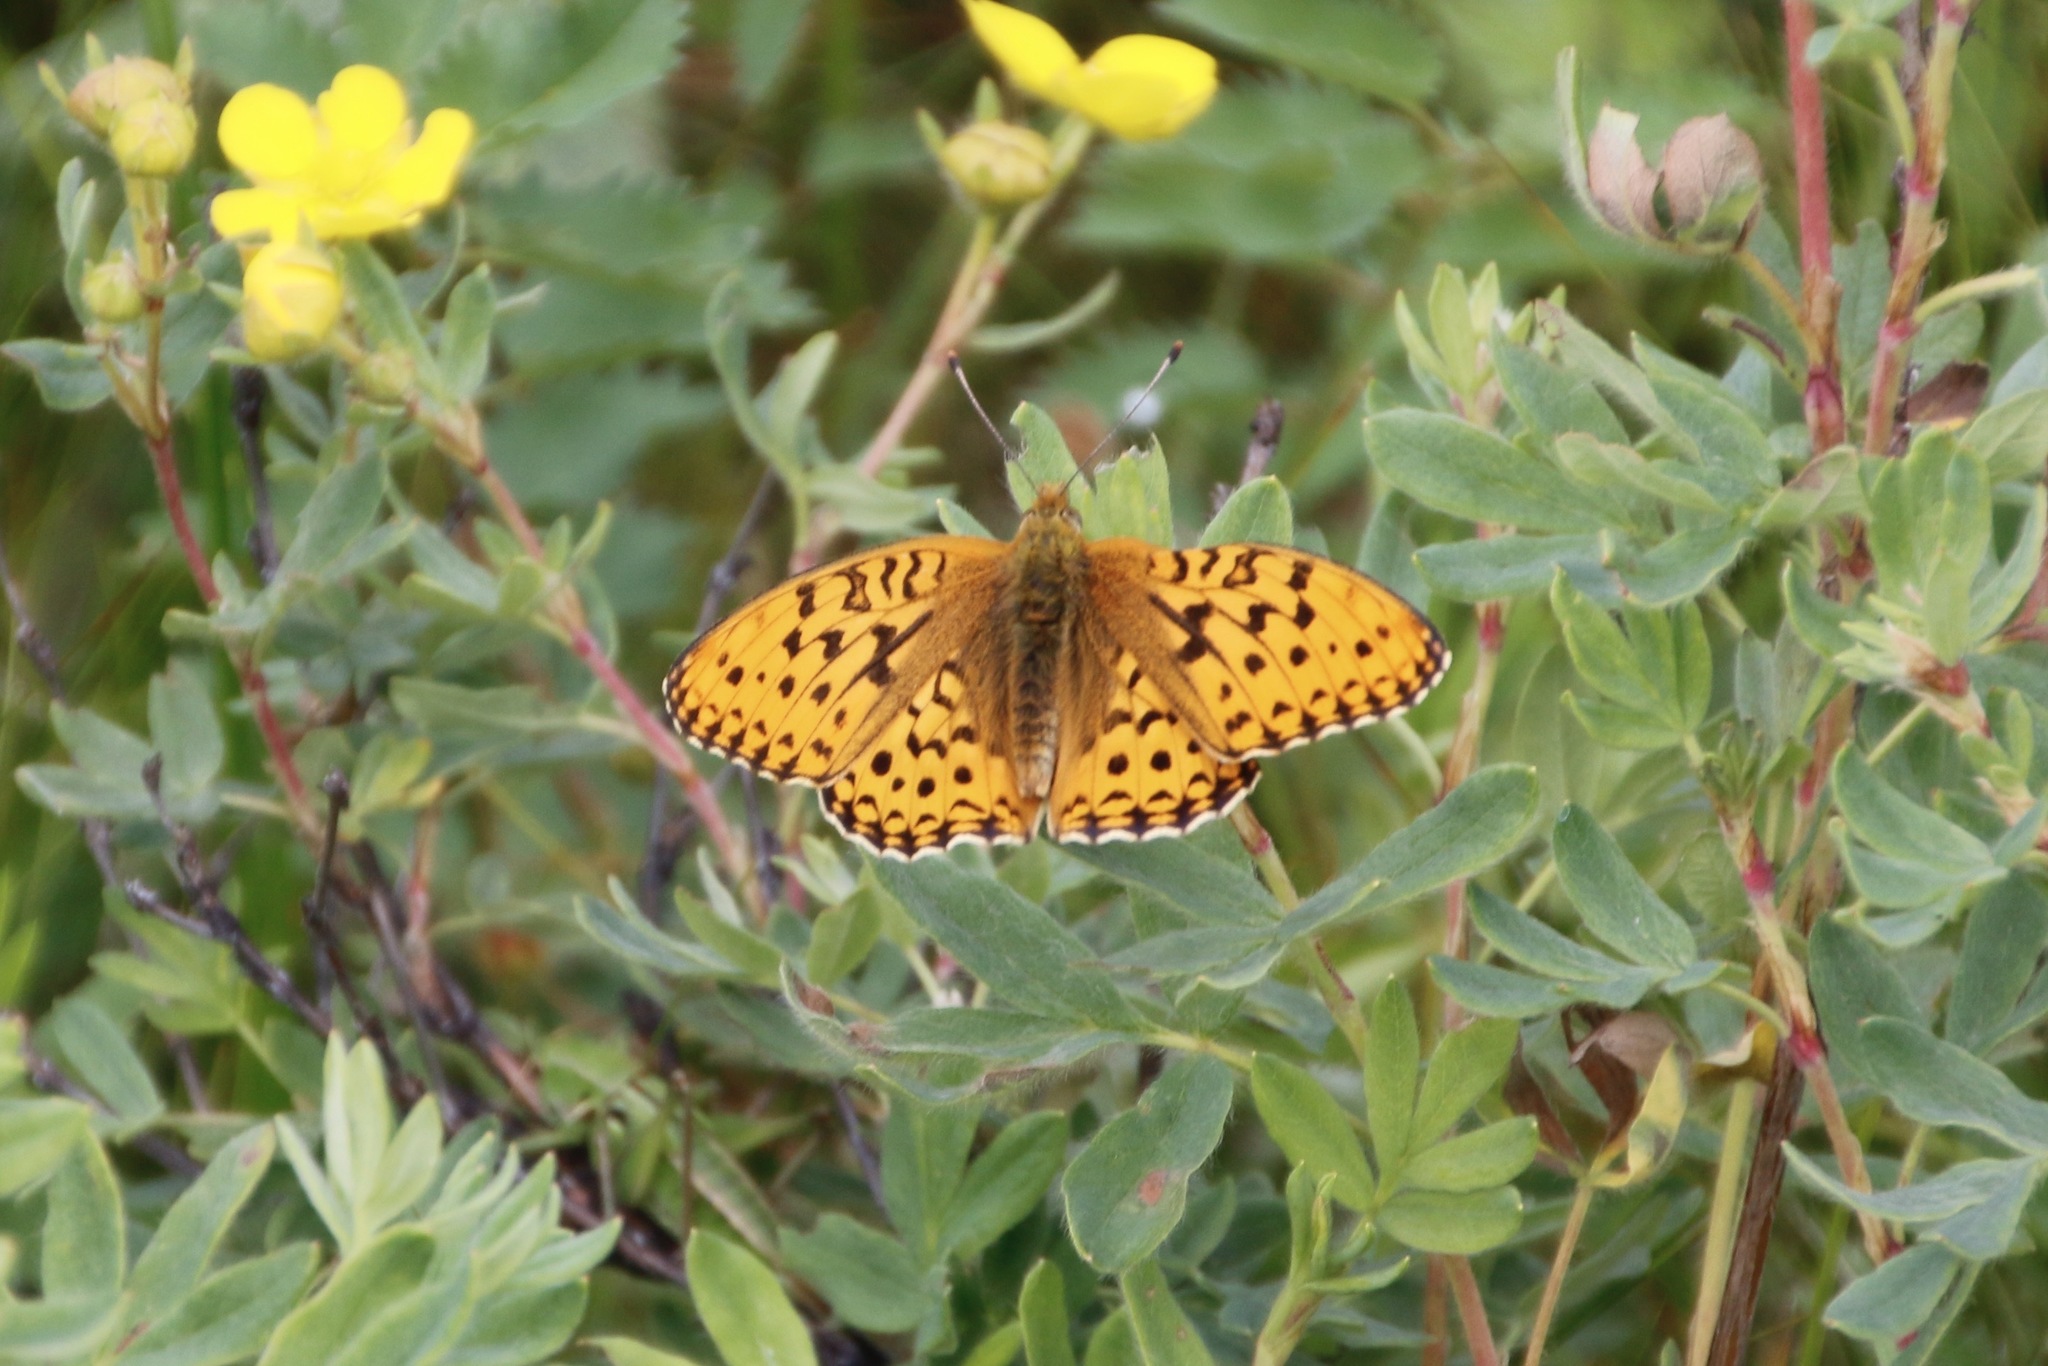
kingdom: Animalia
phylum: Arthropoda
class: Insecta
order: Lepidoptera
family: Nymphalidae
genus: Fabriciana
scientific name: Fabriciana adippe
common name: High brown fritillary
